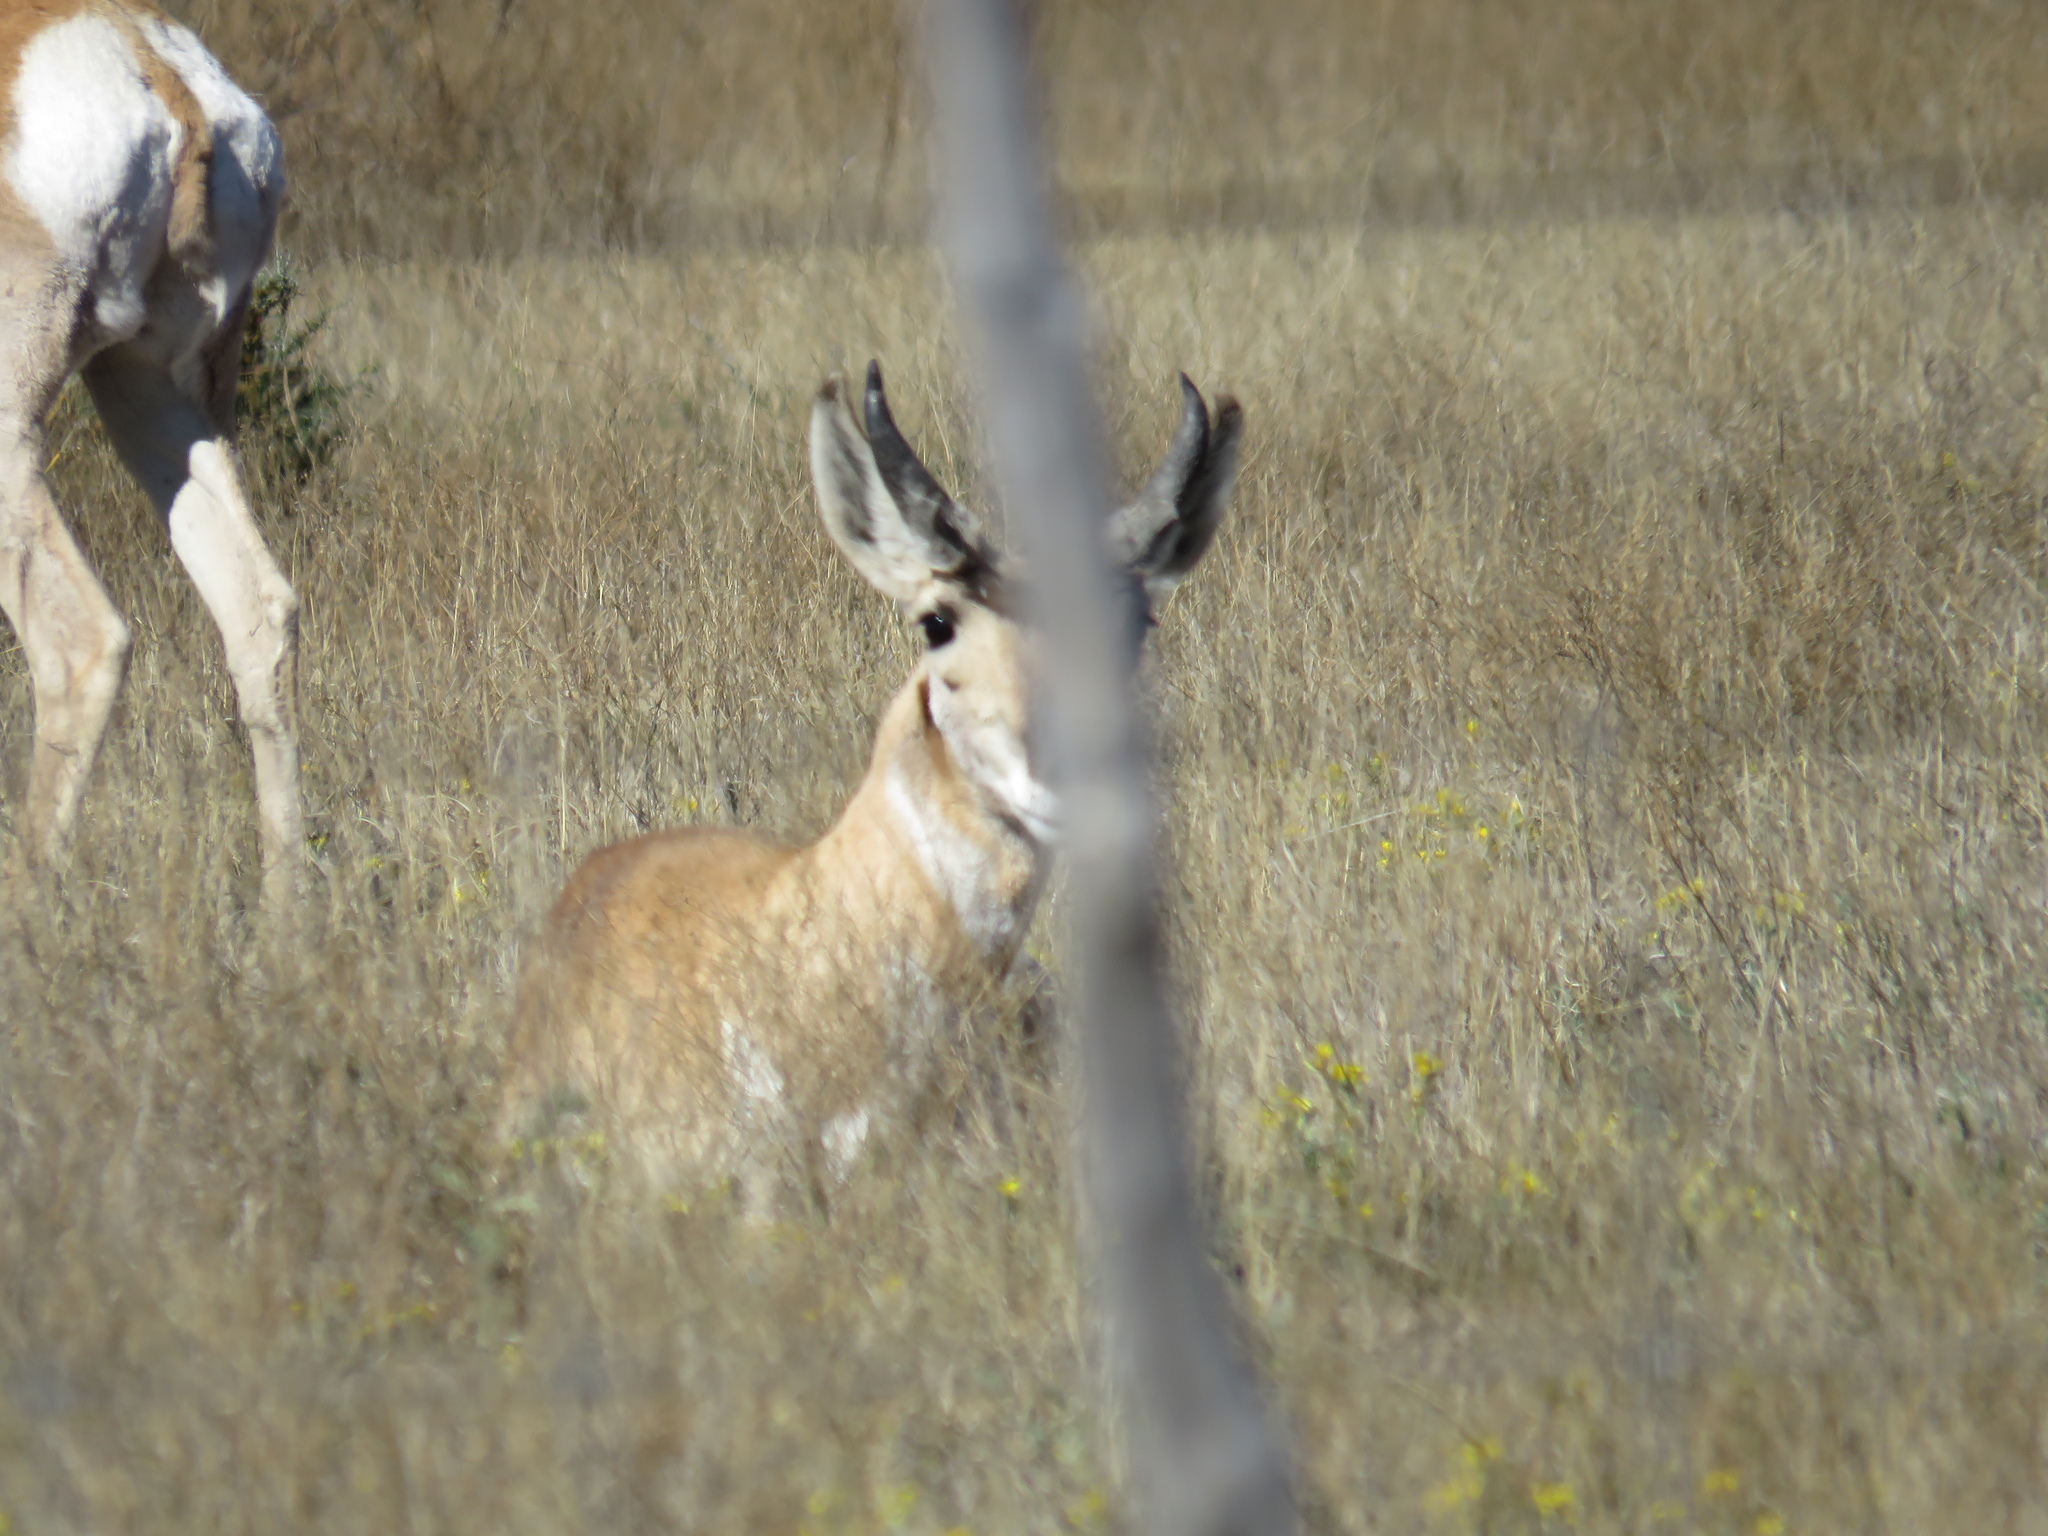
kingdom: Animalia
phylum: Chordata
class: Mammalia
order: Artiodactyla
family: Antilocapridae
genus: Antilocapra
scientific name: Antilocapra americana
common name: Pronghorn
